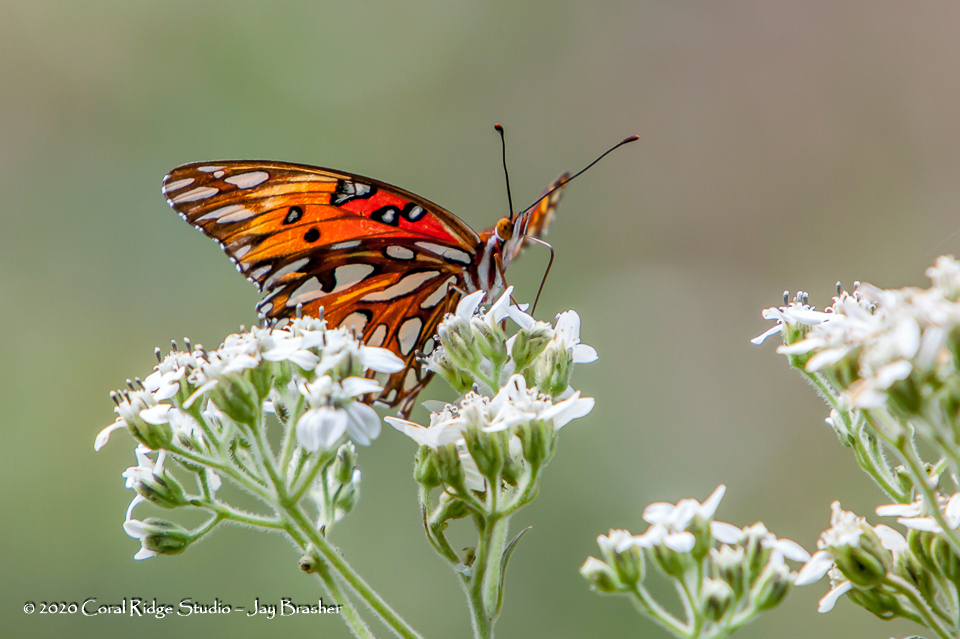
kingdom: Animalia
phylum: Arthropoda
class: Insecta
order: Lepidoptera
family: Nymphalidae
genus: Dione
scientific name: Dione vanillae
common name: Gulf fritillary
